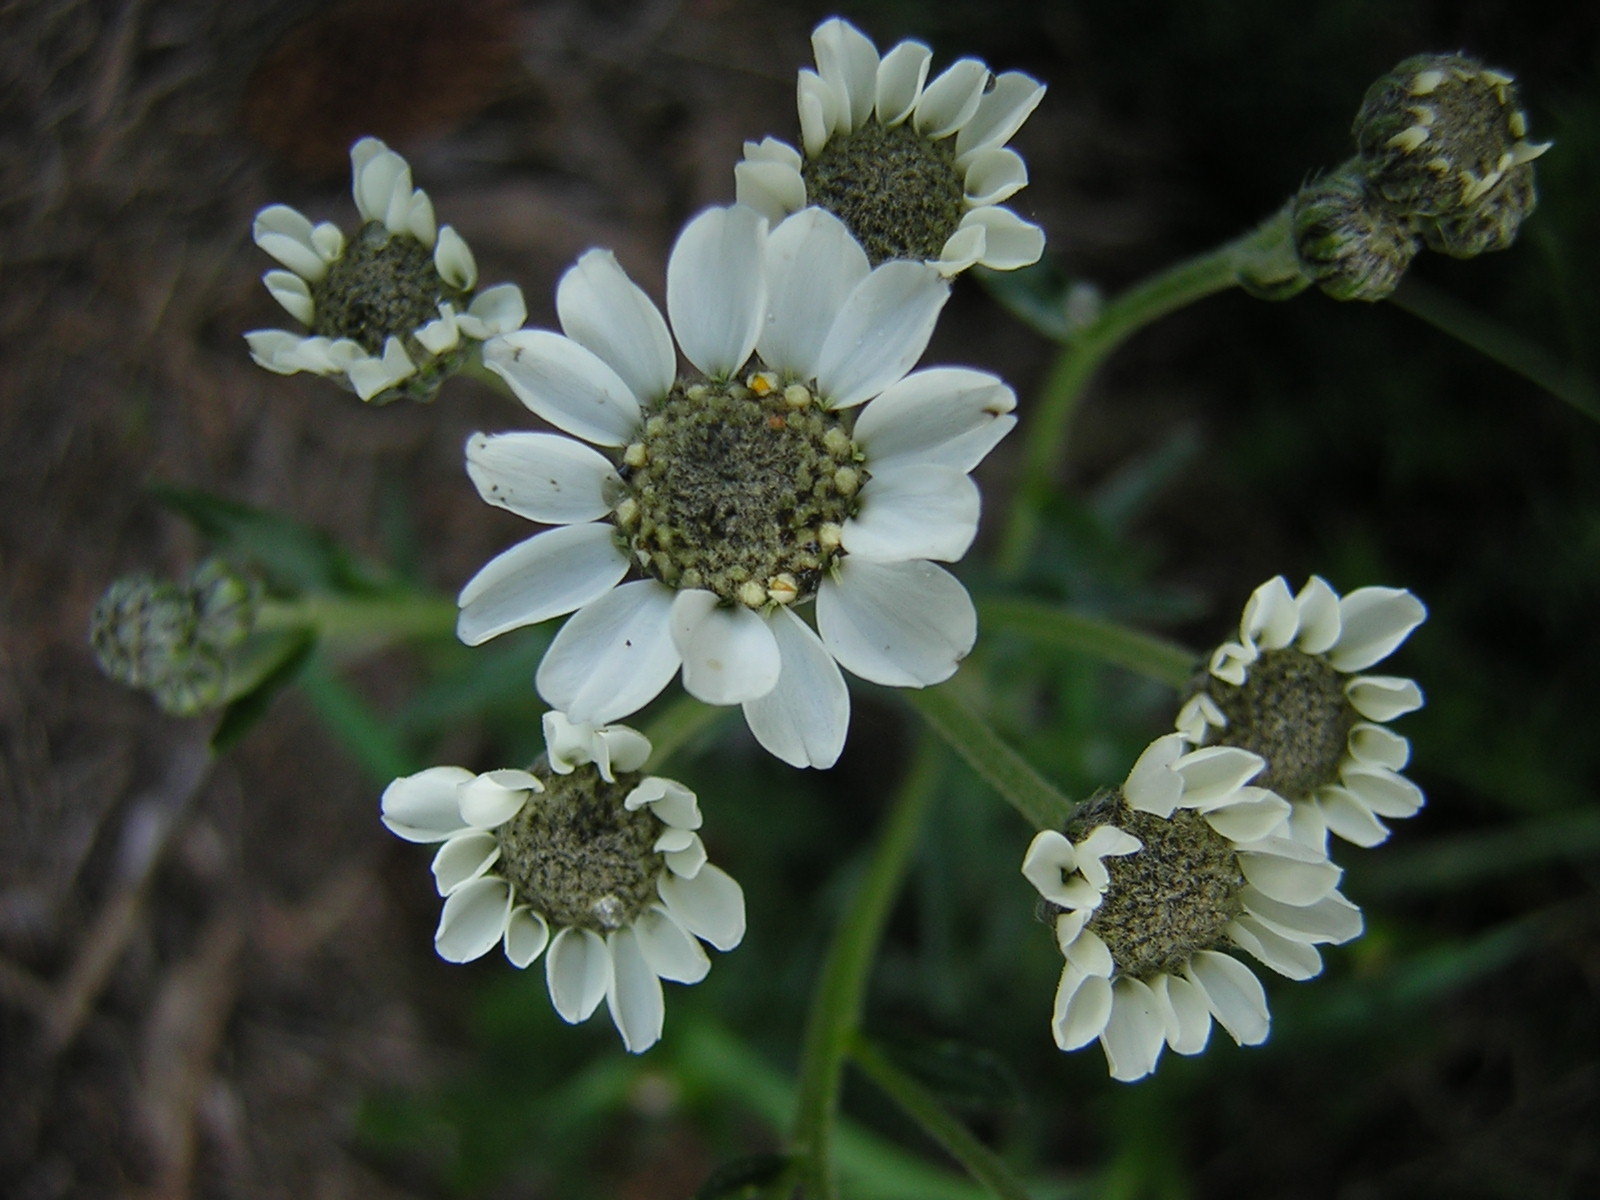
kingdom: Plantae
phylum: Tracheophyta
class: Magnoliopsida
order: Asterales
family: Asteraceae
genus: Achillea
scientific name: Achillea ptarmica
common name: Sneezeweed
